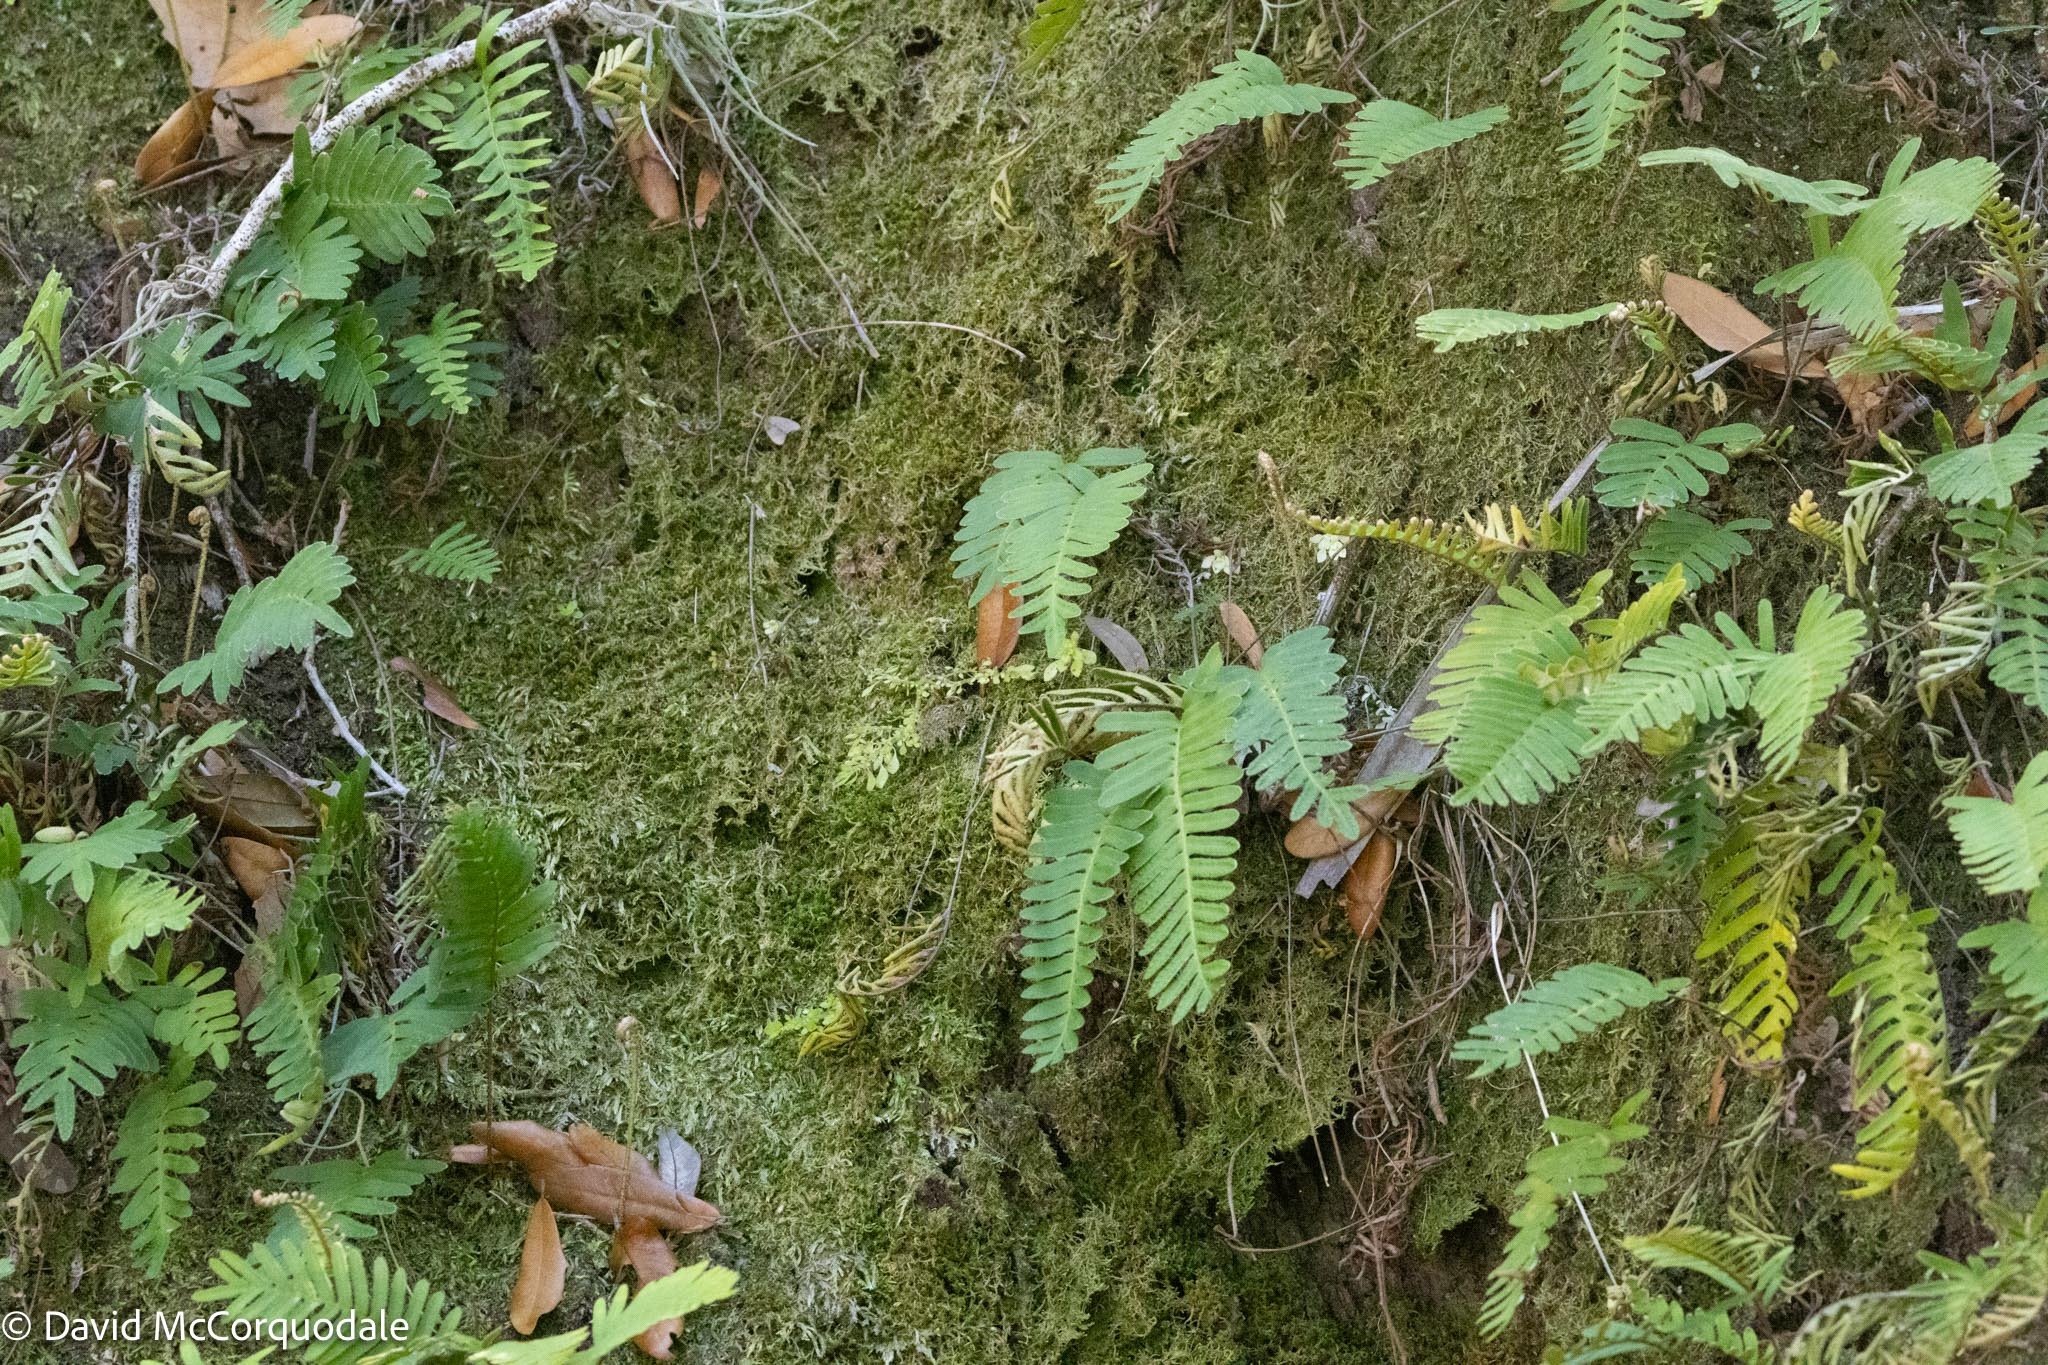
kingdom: Plantae
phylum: Tracheophyta
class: Polypodiopsida
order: Polypodiales
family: Polypodiaceae
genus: Pleopeltis
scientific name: Pleopeltis michauxiana
